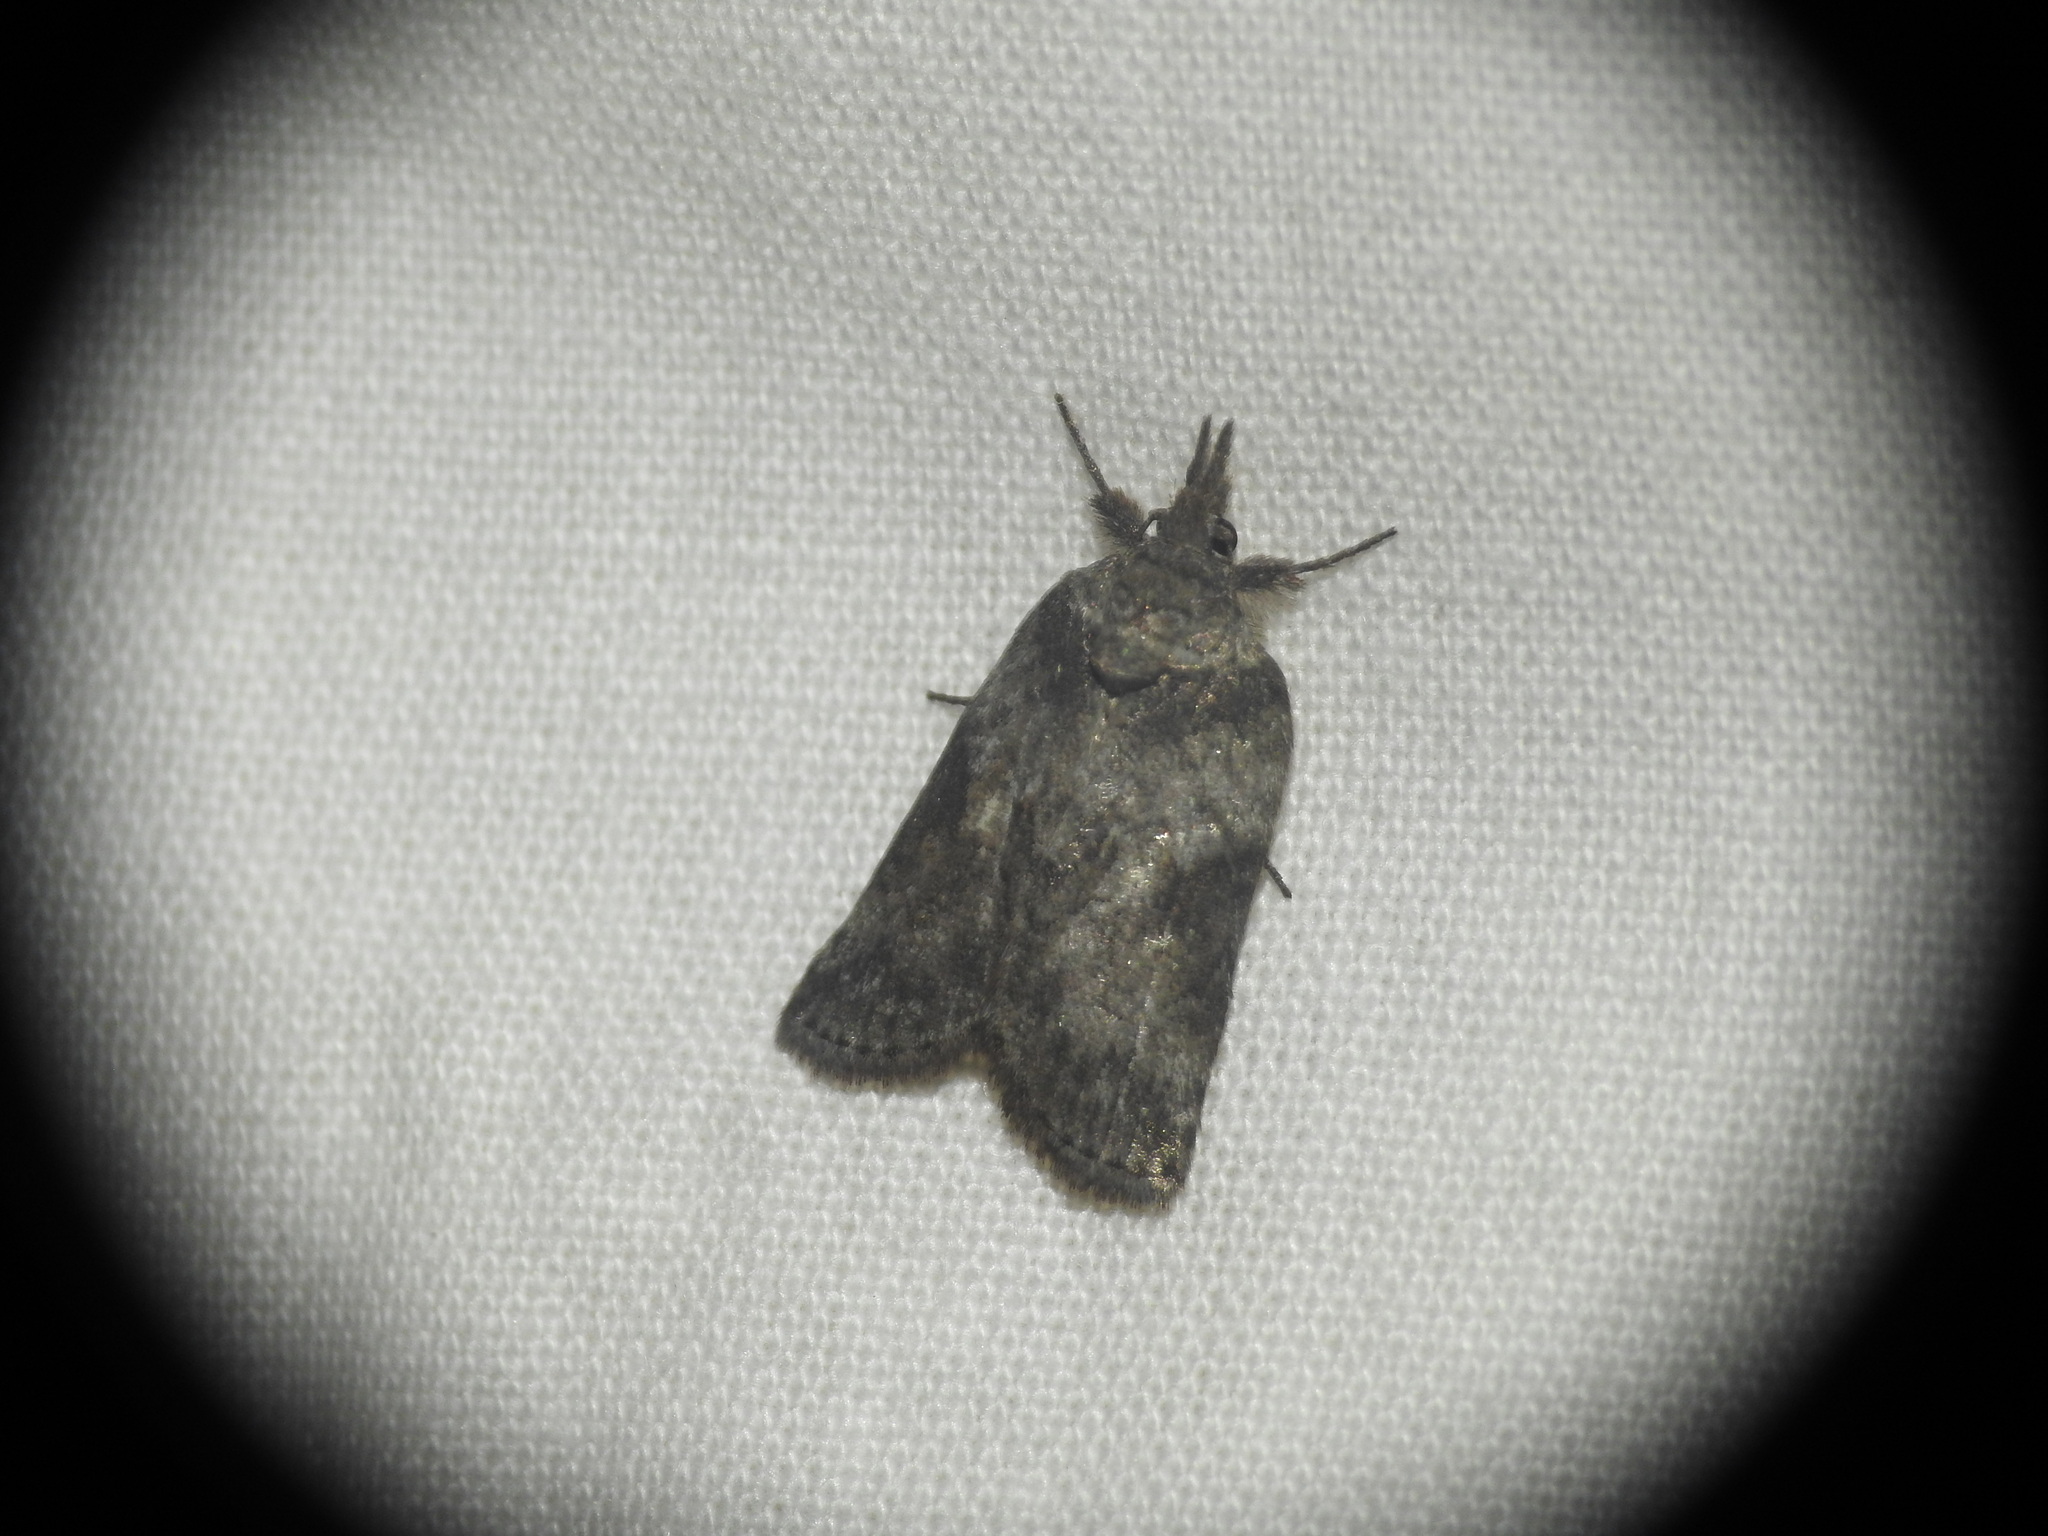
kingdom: Animalia
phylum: Arthropoda
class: Insecta
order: Lepidoptera
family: Nolidae
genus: Nycteola
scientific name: Nycteola revayana
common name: Oak nycteoline
